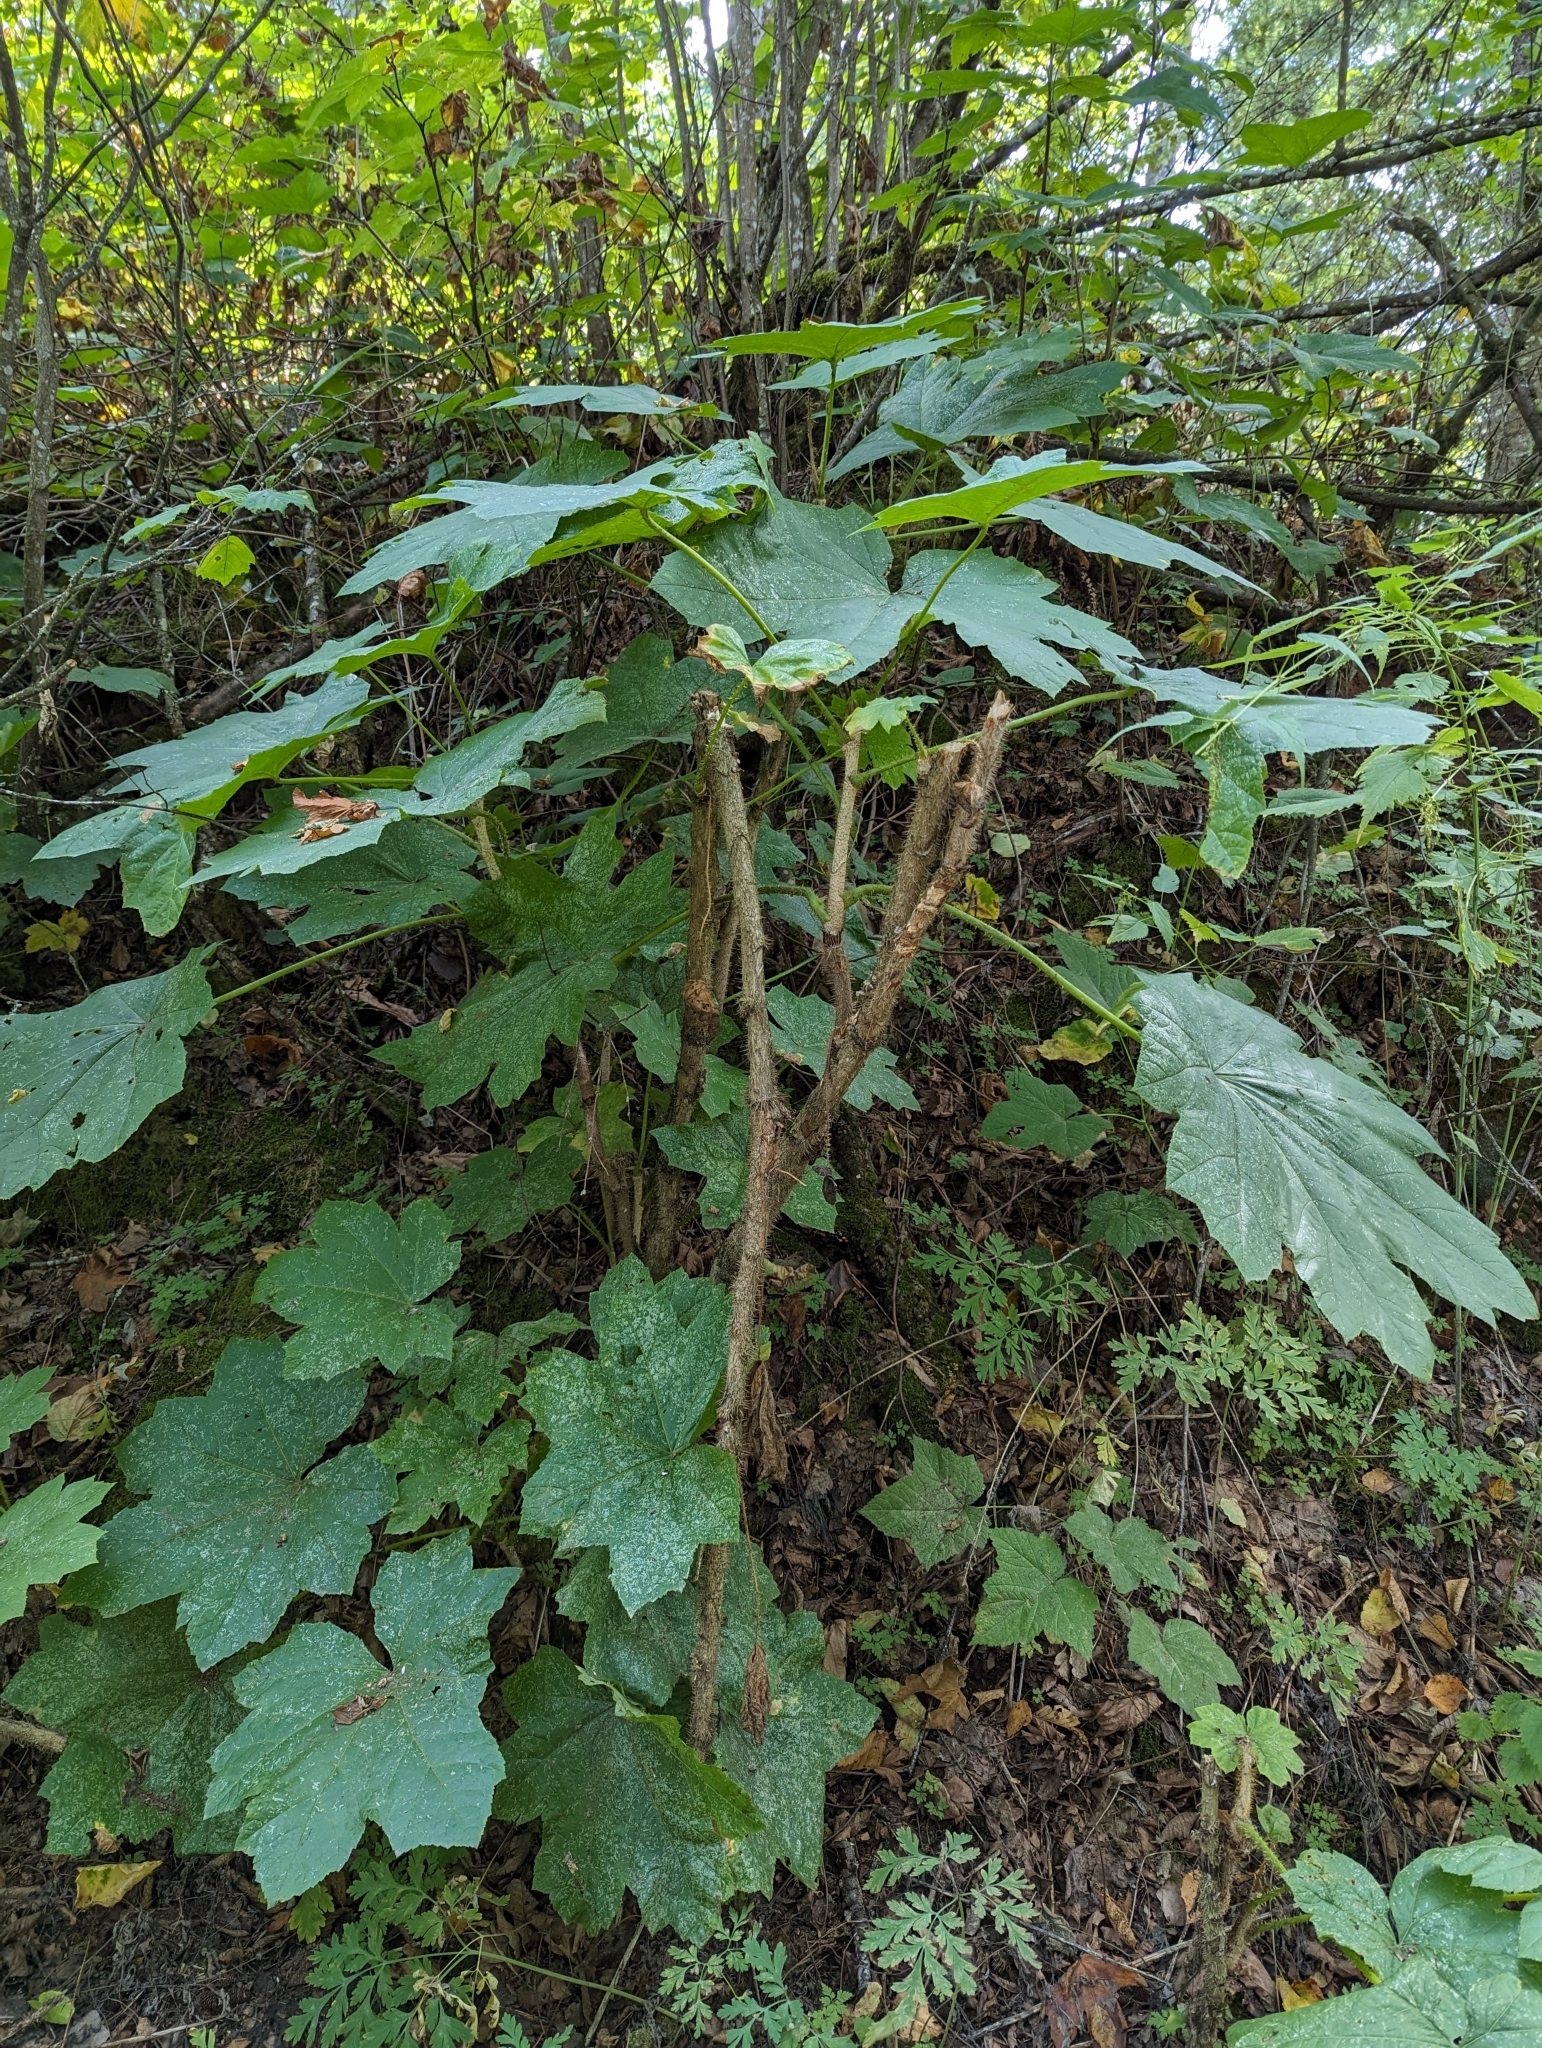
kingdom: Plantae
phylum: Tracheophyta
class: Magnoliopsida
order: Apiales
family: Araliaceae
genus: Oplopanax
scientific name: Oplopanax horridus
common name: Devil's walking-stick
